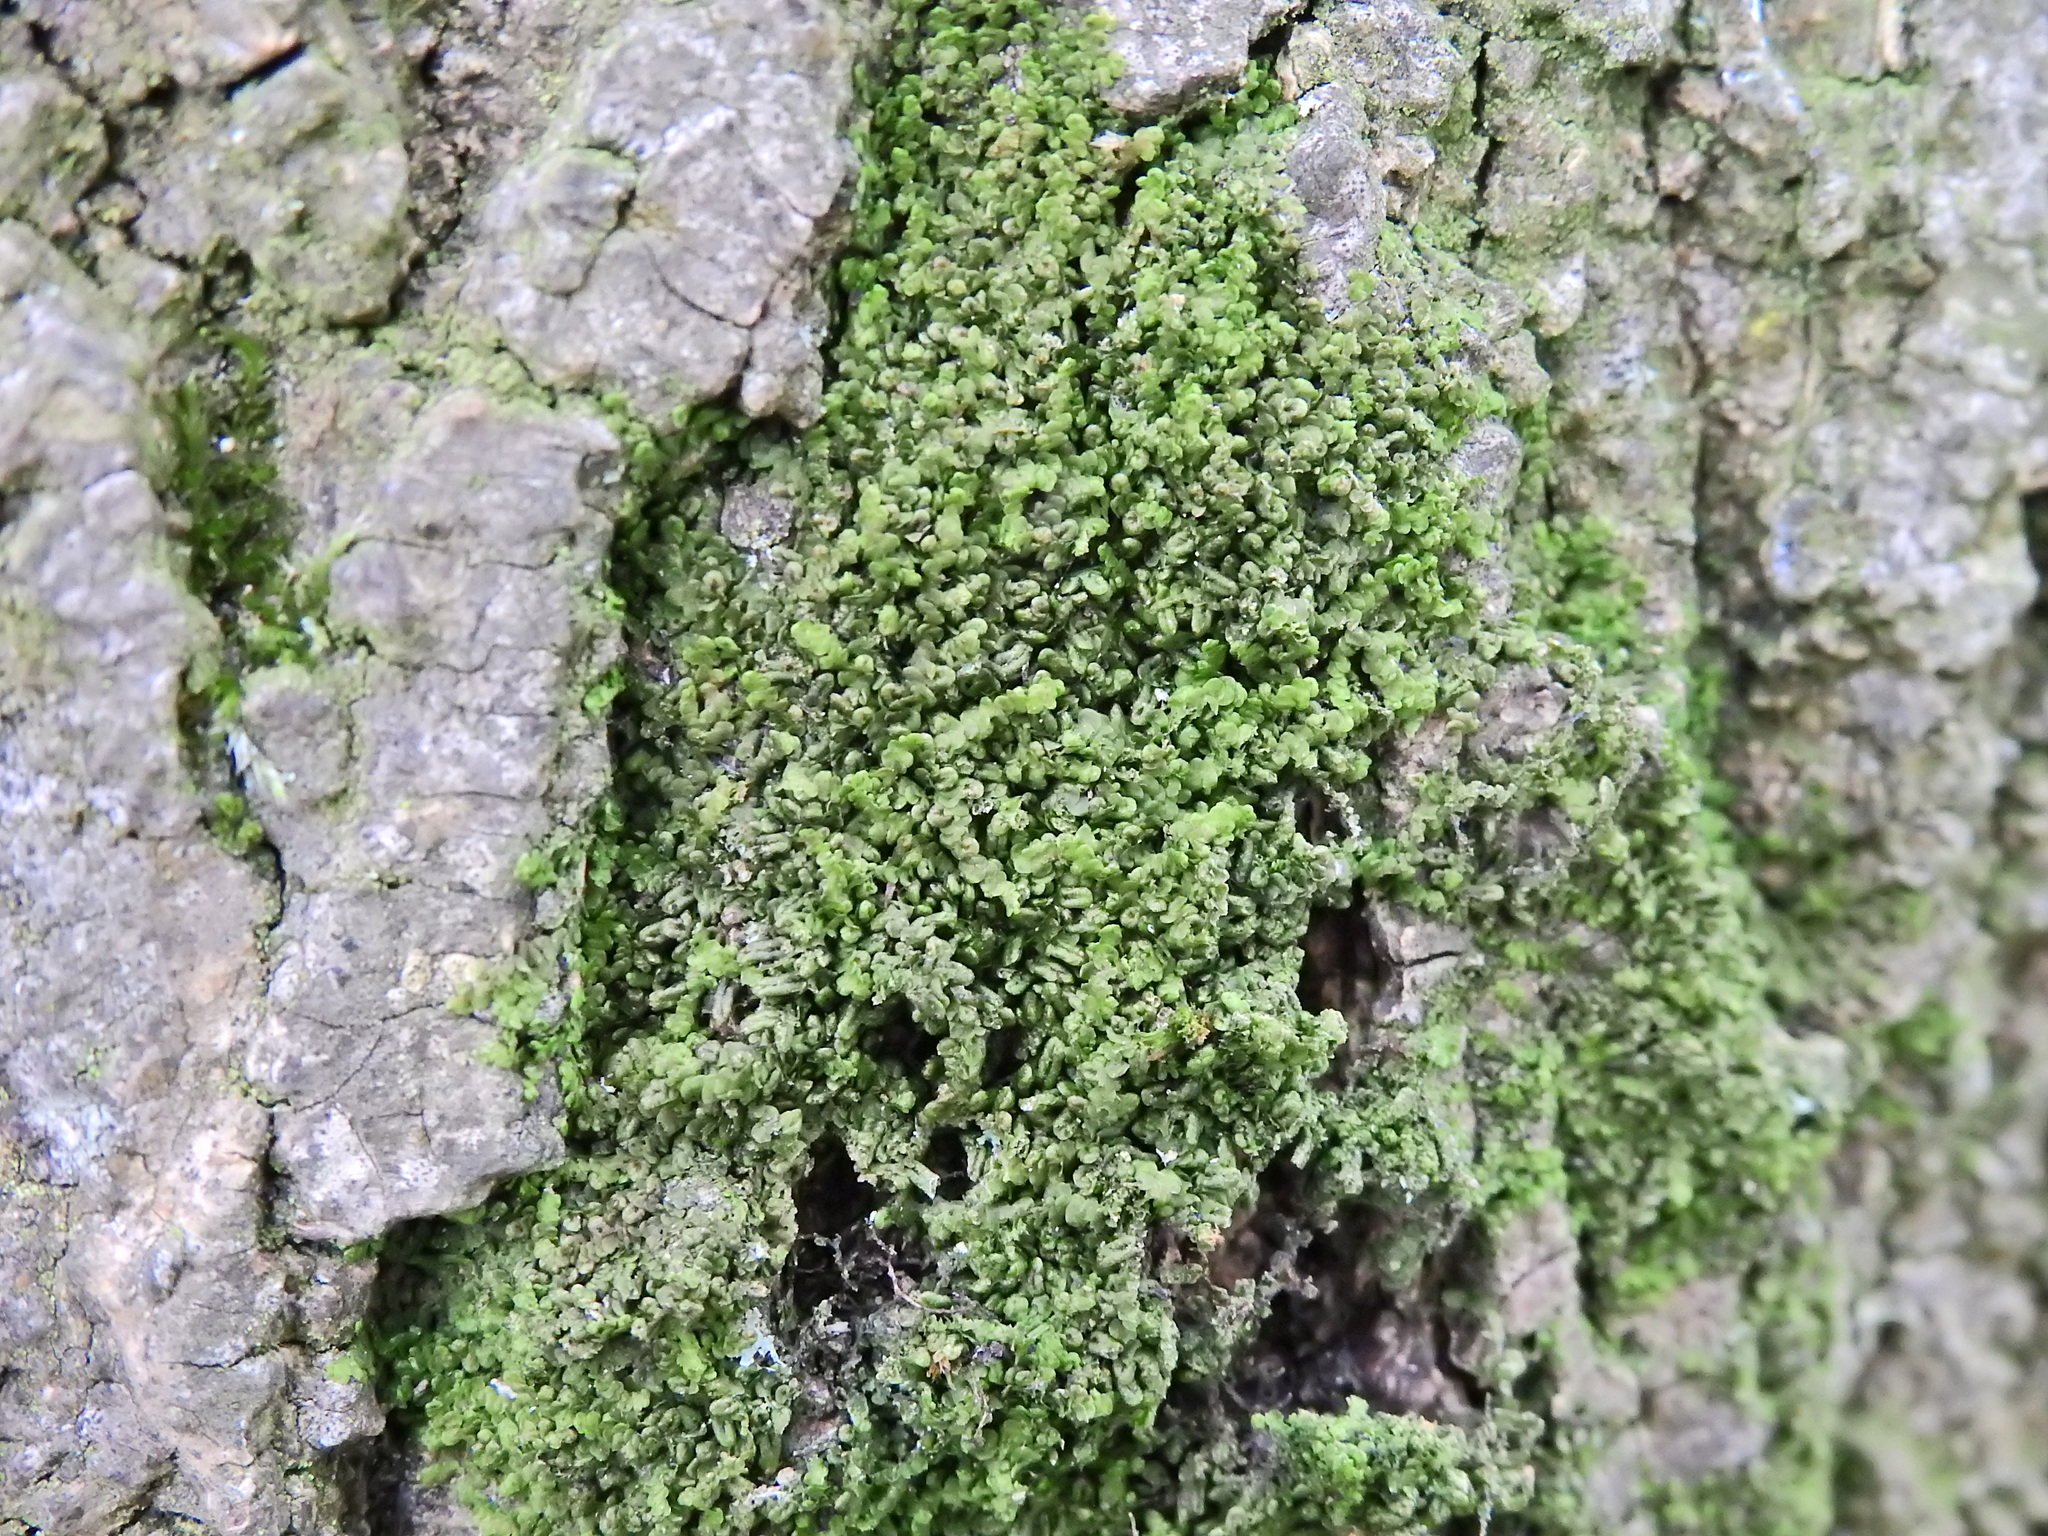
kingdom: Plantae
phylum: Marchantiophyta
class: Jungermanniopsida
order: Porellales
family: Frullaniaceae
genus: Frullania
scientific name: Frullania dilatata
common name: Dilated scalewort
